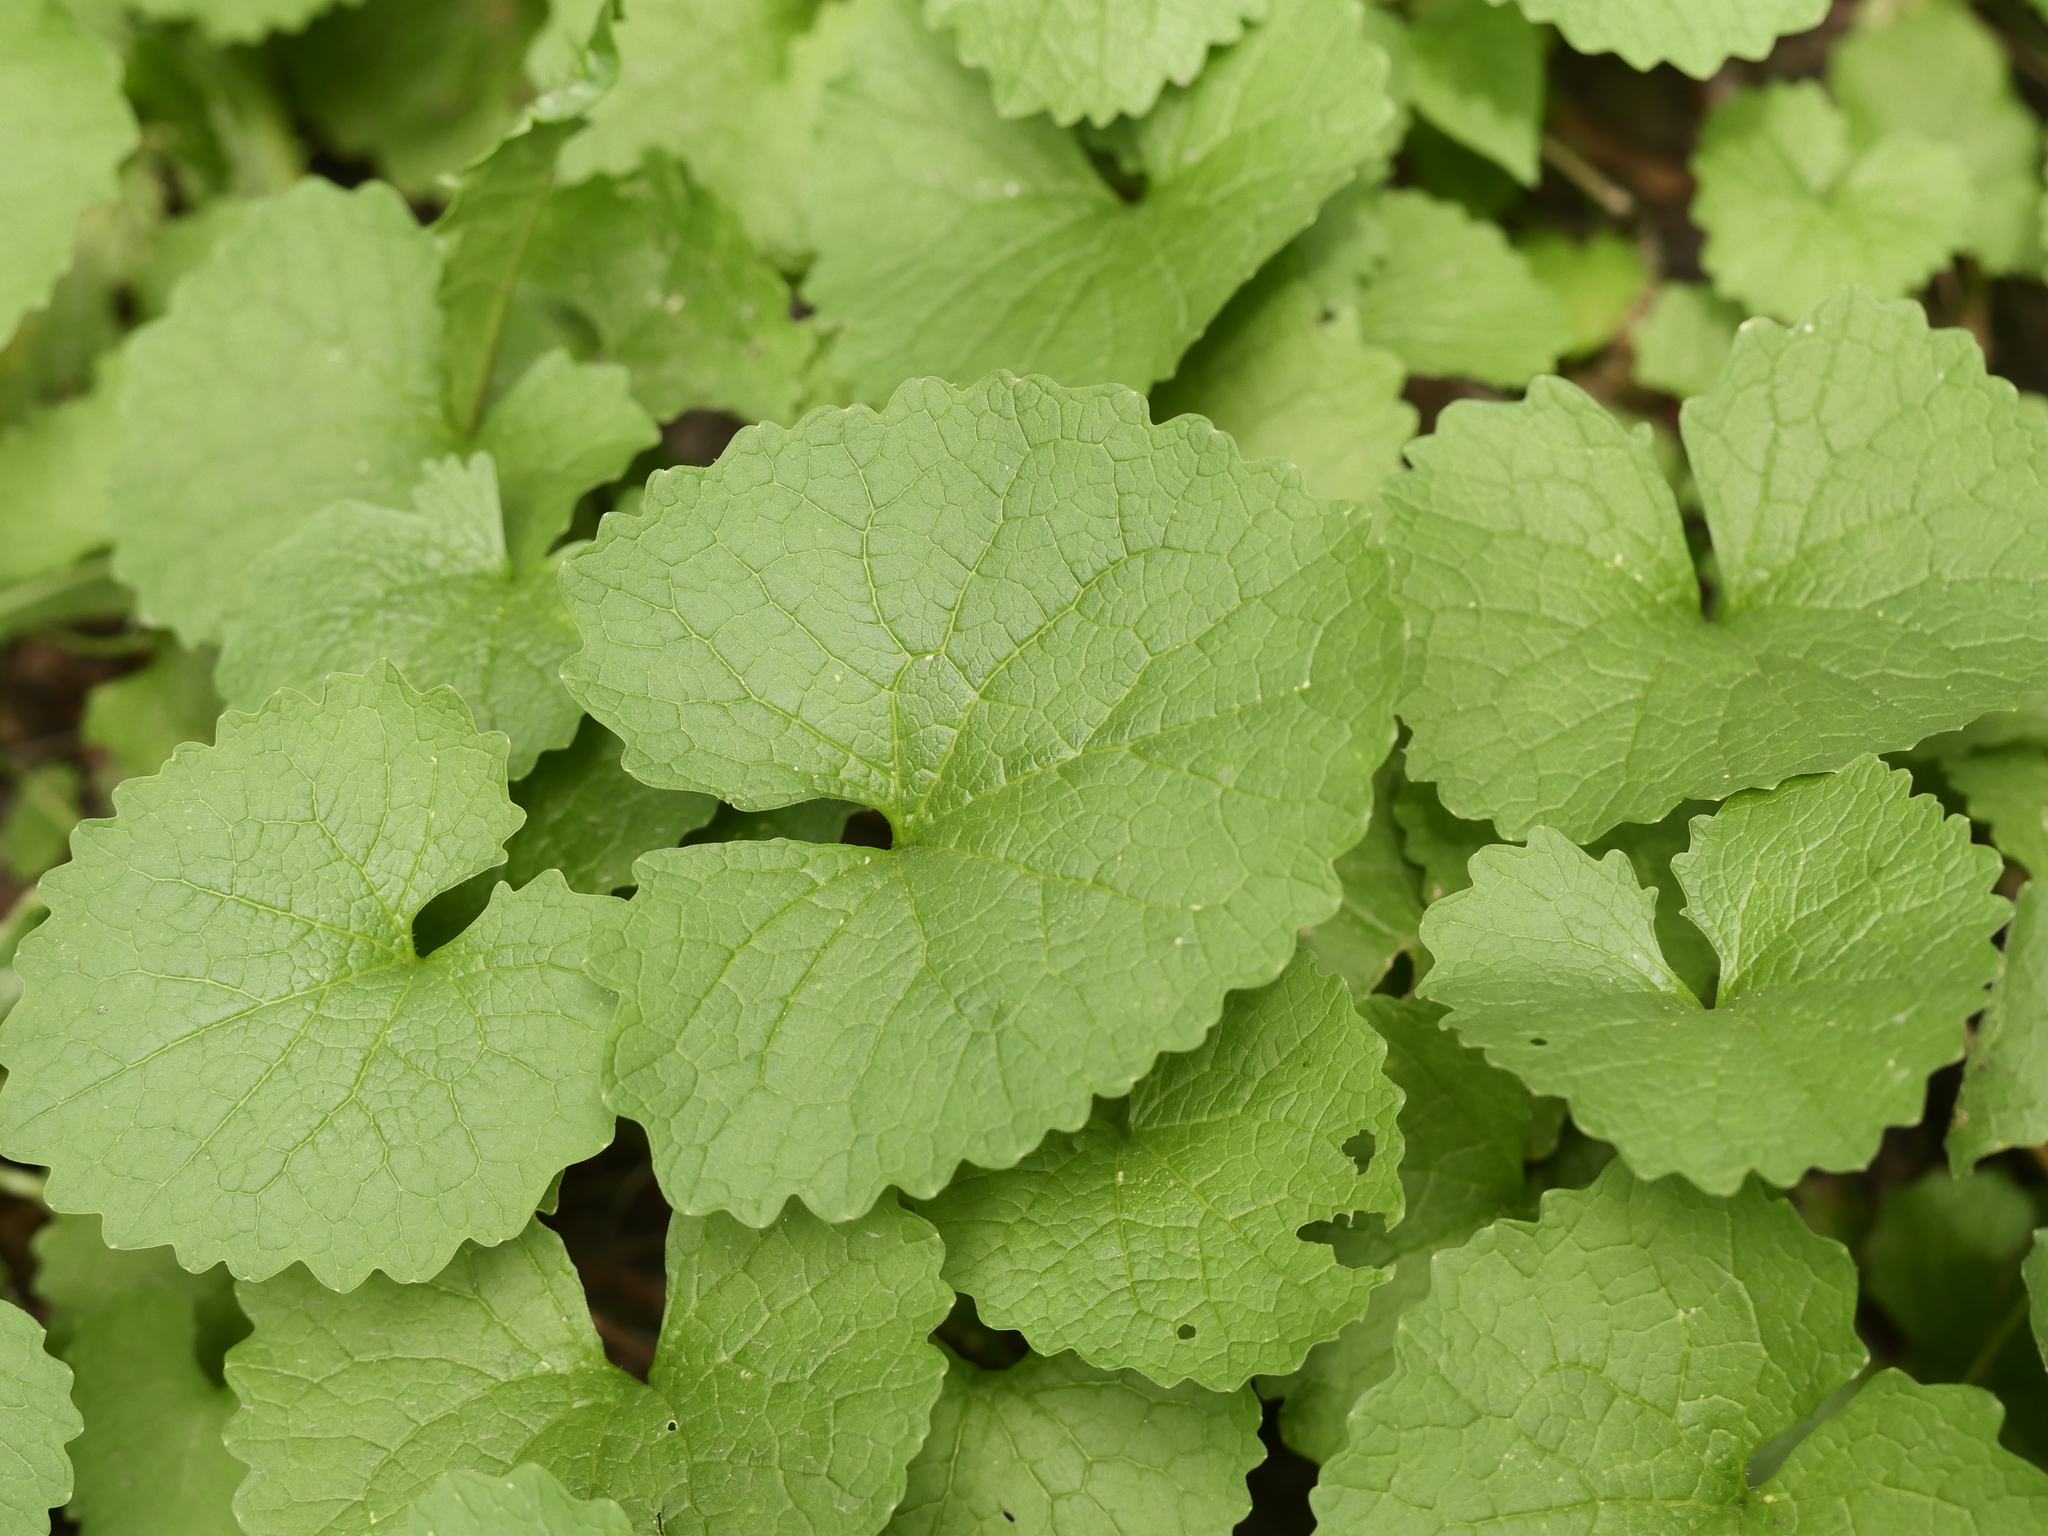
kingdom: Plantae
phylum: Tracheophyta
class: Magnoliopsida
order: Brassicales
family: Brassicaceae
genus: Alliaria
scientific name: Alliaria petiolata
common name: Garlic mustard
